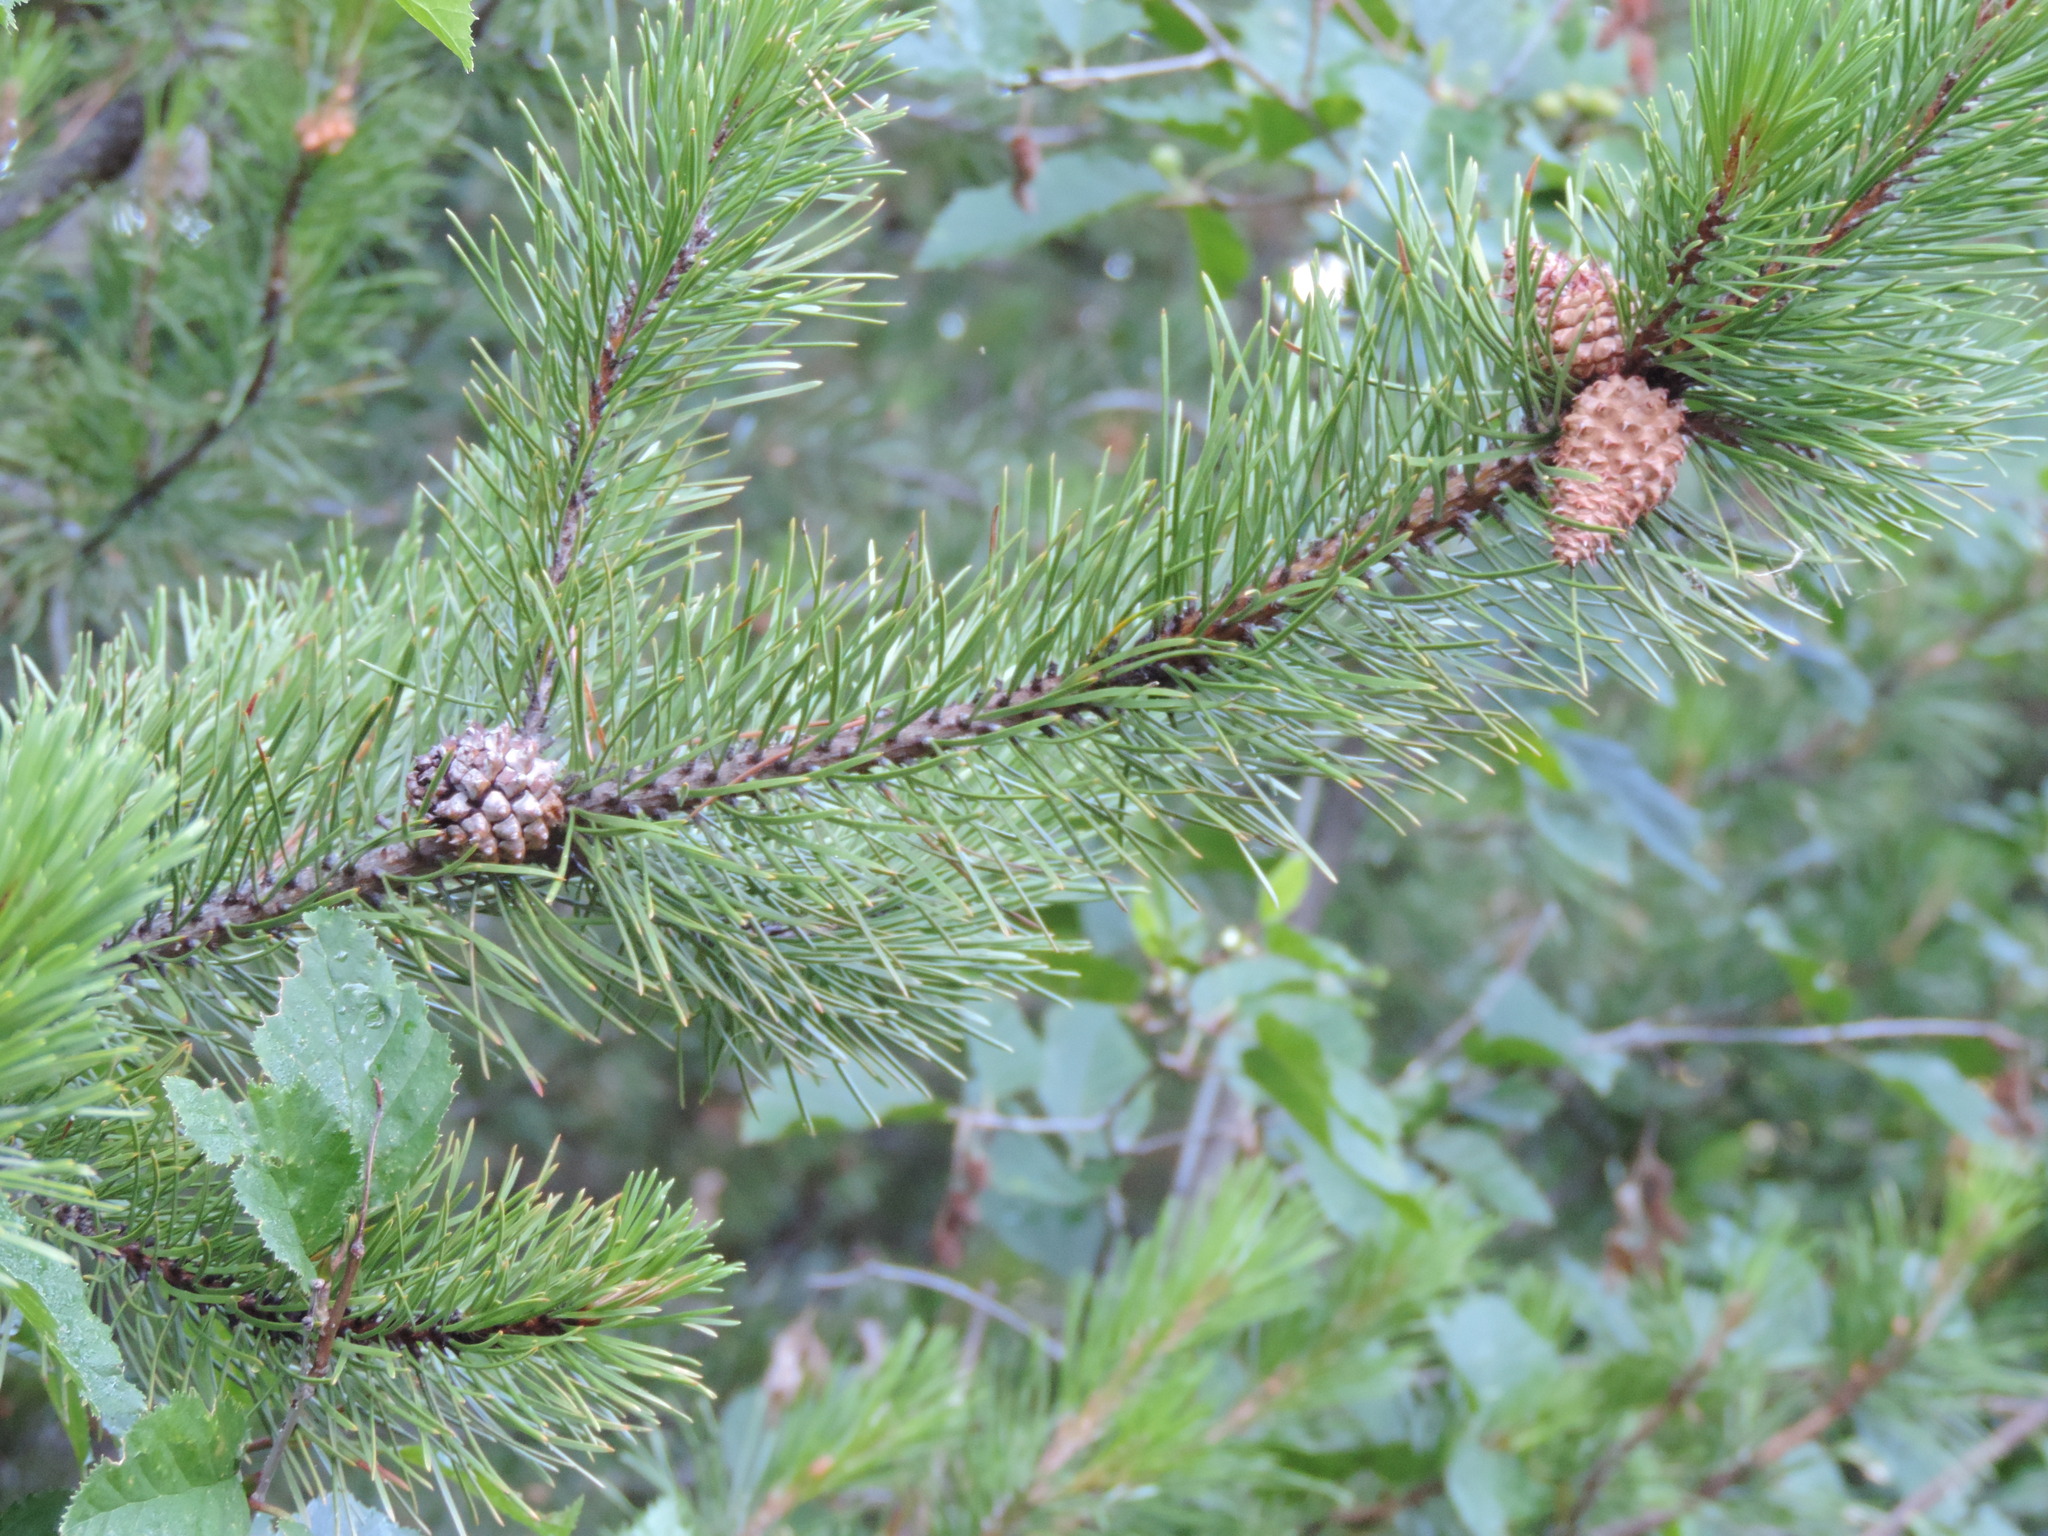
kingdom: Plantae
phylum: Tracheophyta
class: Pinopsida
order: Pinales
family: Pinaceae
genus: Pinus
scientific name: Pinus contorta
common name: Lodgepole pine
